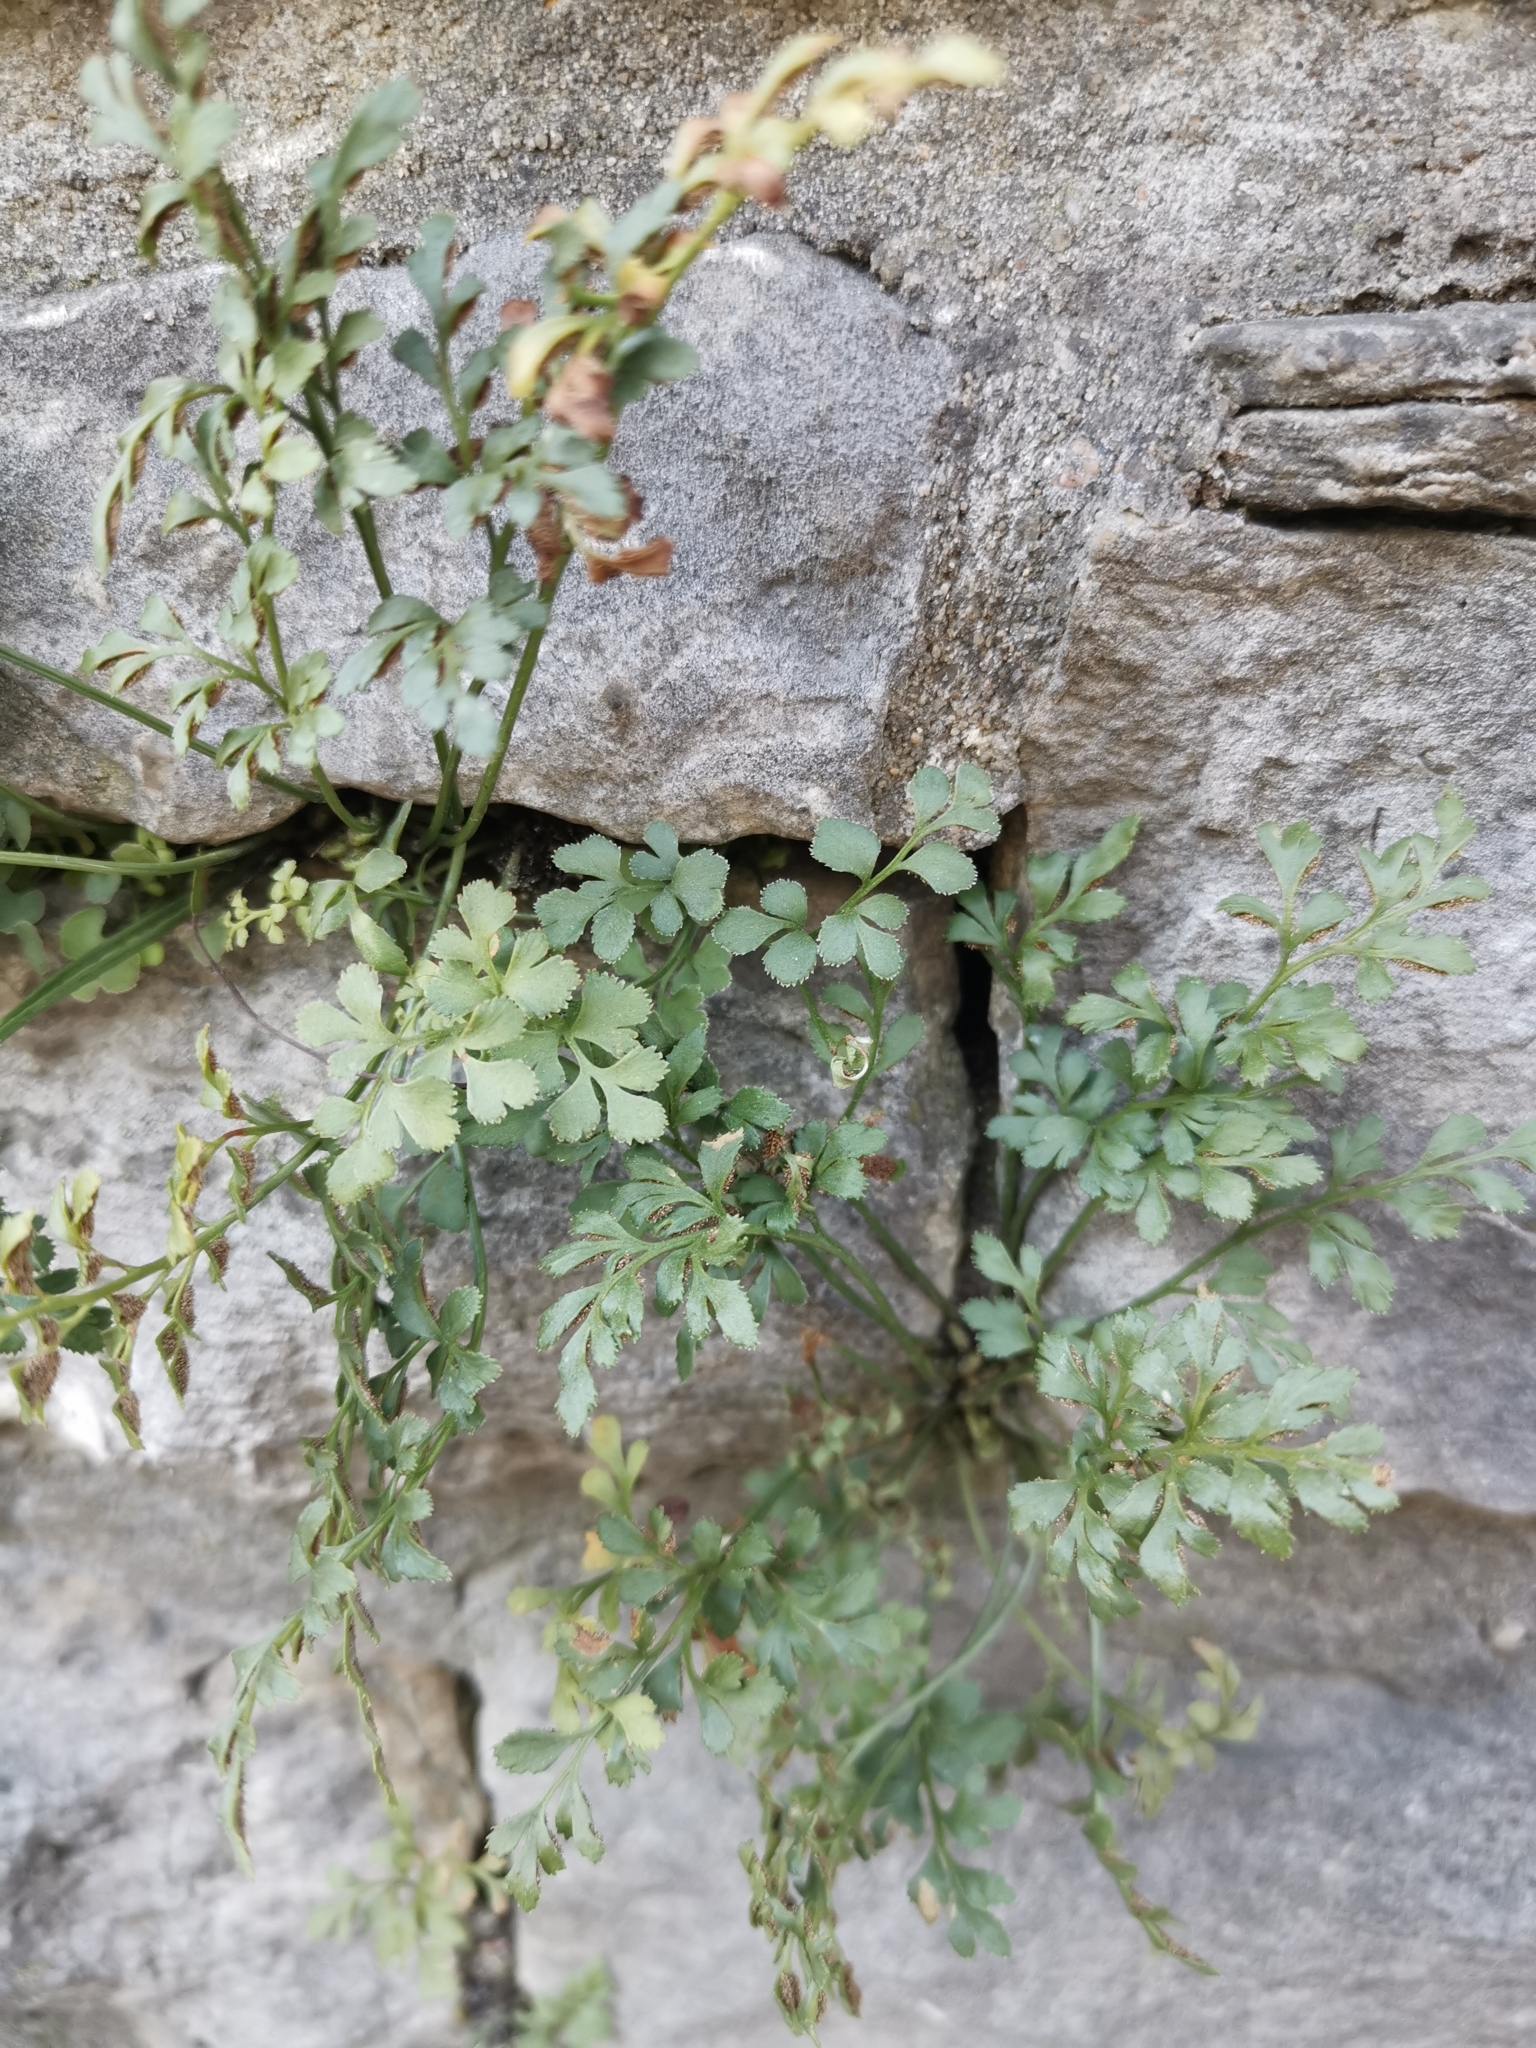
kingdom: Plantae
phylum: Tracheophyta
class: Polypodiopsida
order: Polypodiales
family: Aspleniaceae
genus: Asplenium
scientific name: Asplenium ruta-muraria
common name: Wall-rue
